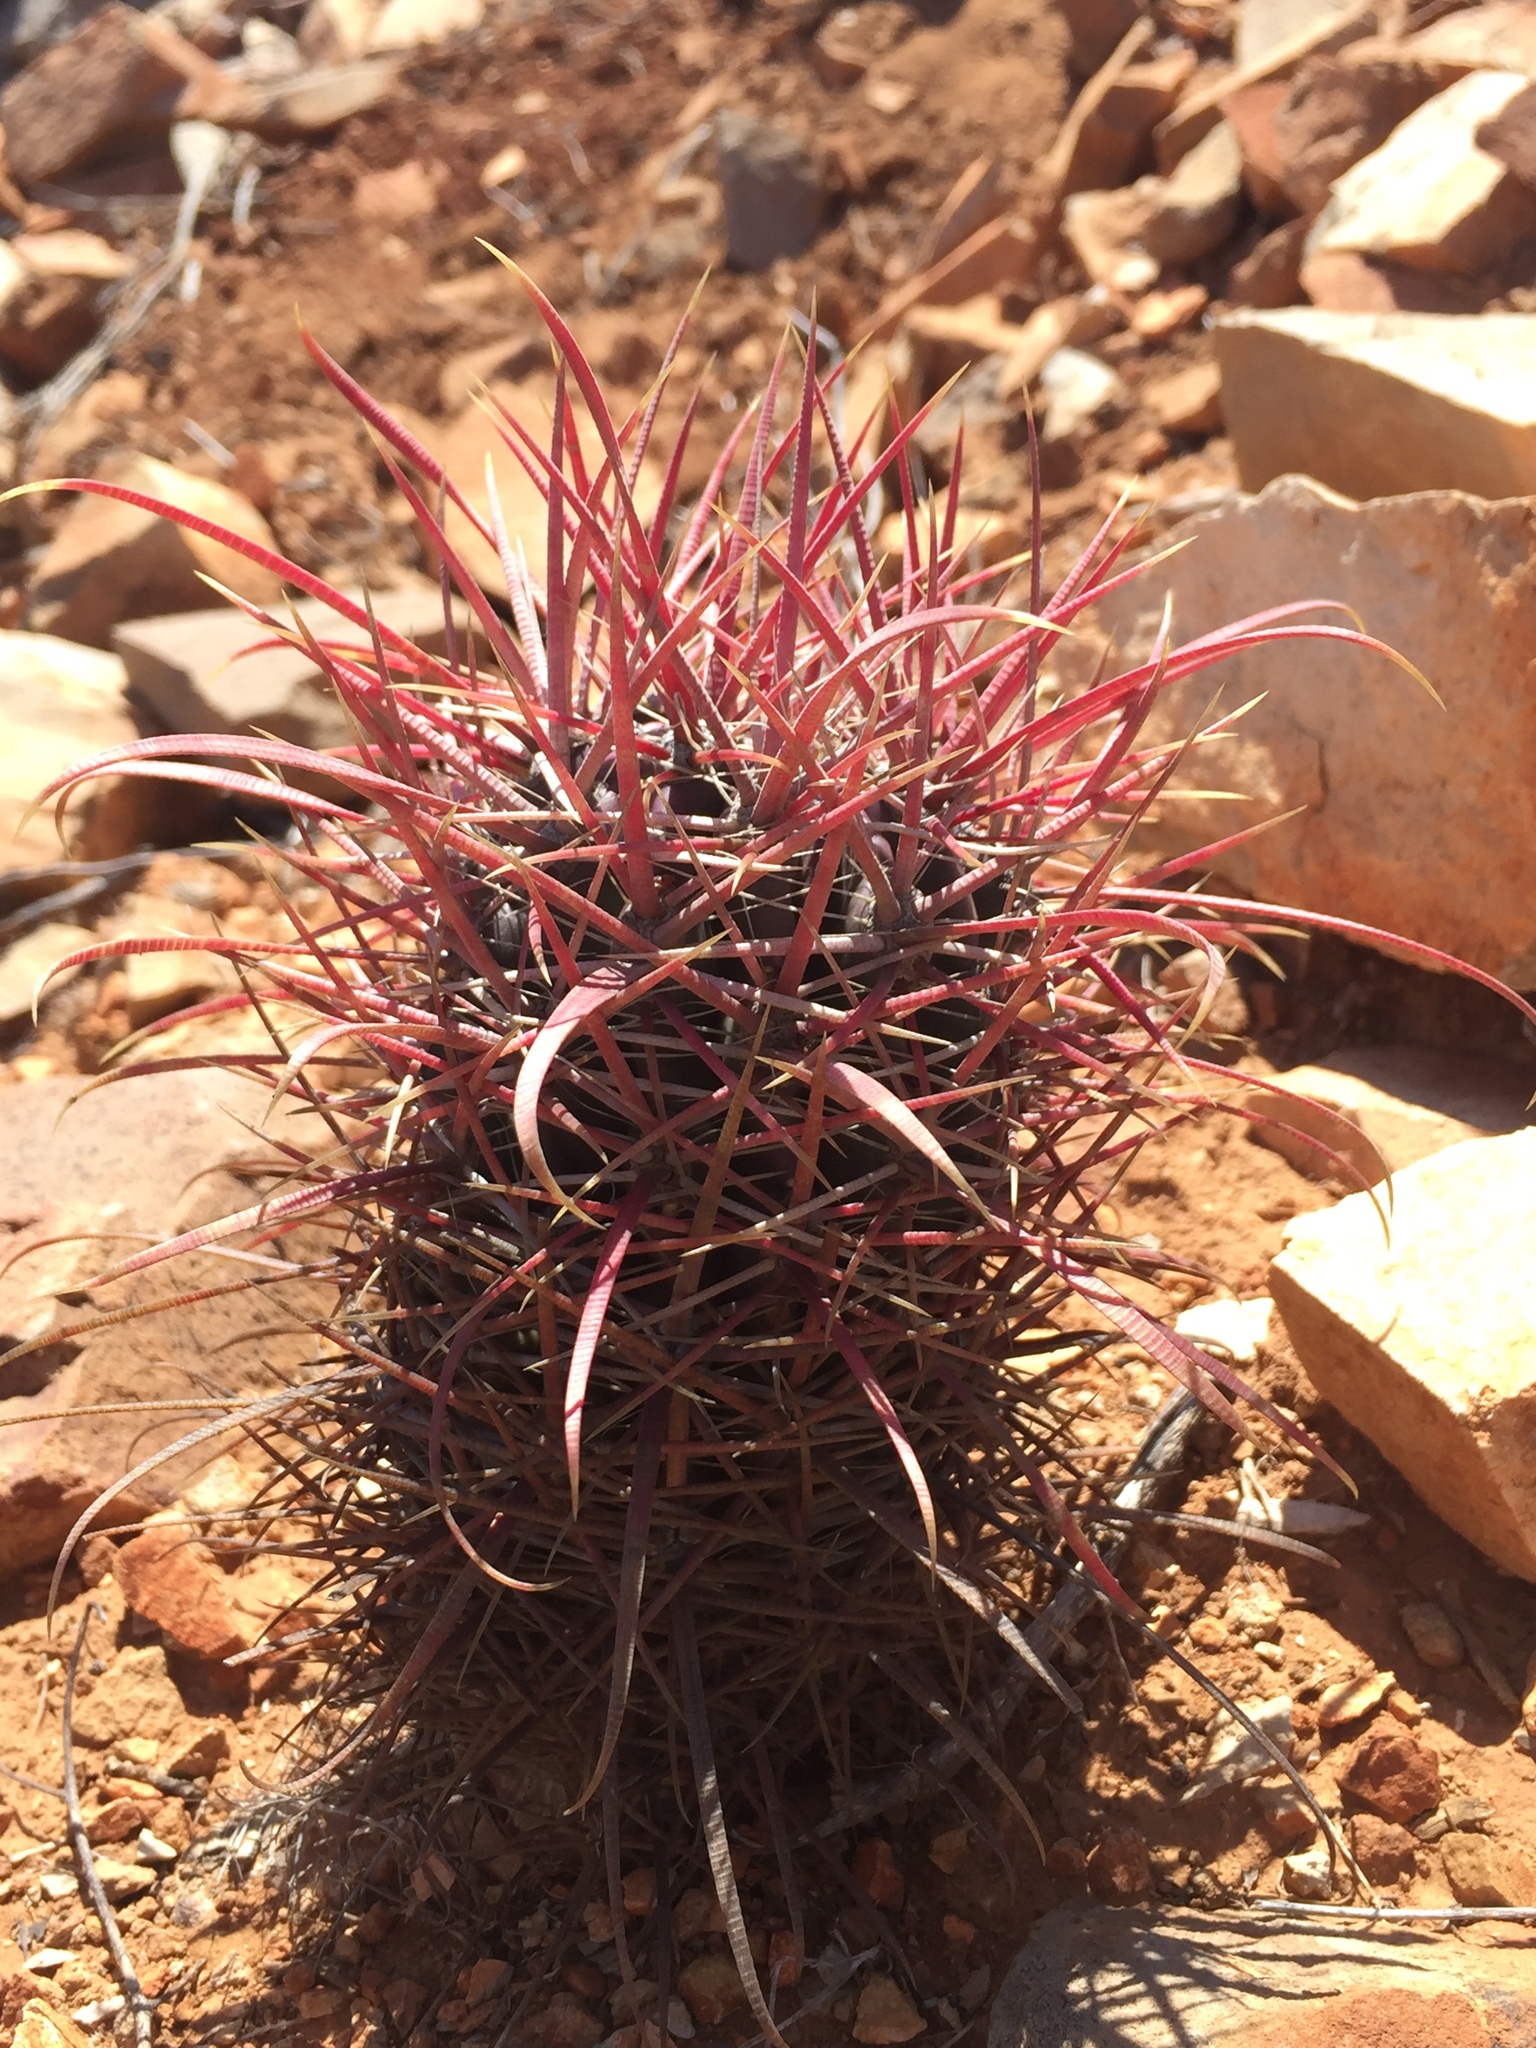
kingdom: Plantae
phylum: Tracheophyta
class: Magnoliopsida
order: Caryophyllales
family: Cactaceae
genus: Ferocactus
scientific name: Ferocactus gracilis
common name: Fire barrel cactus
